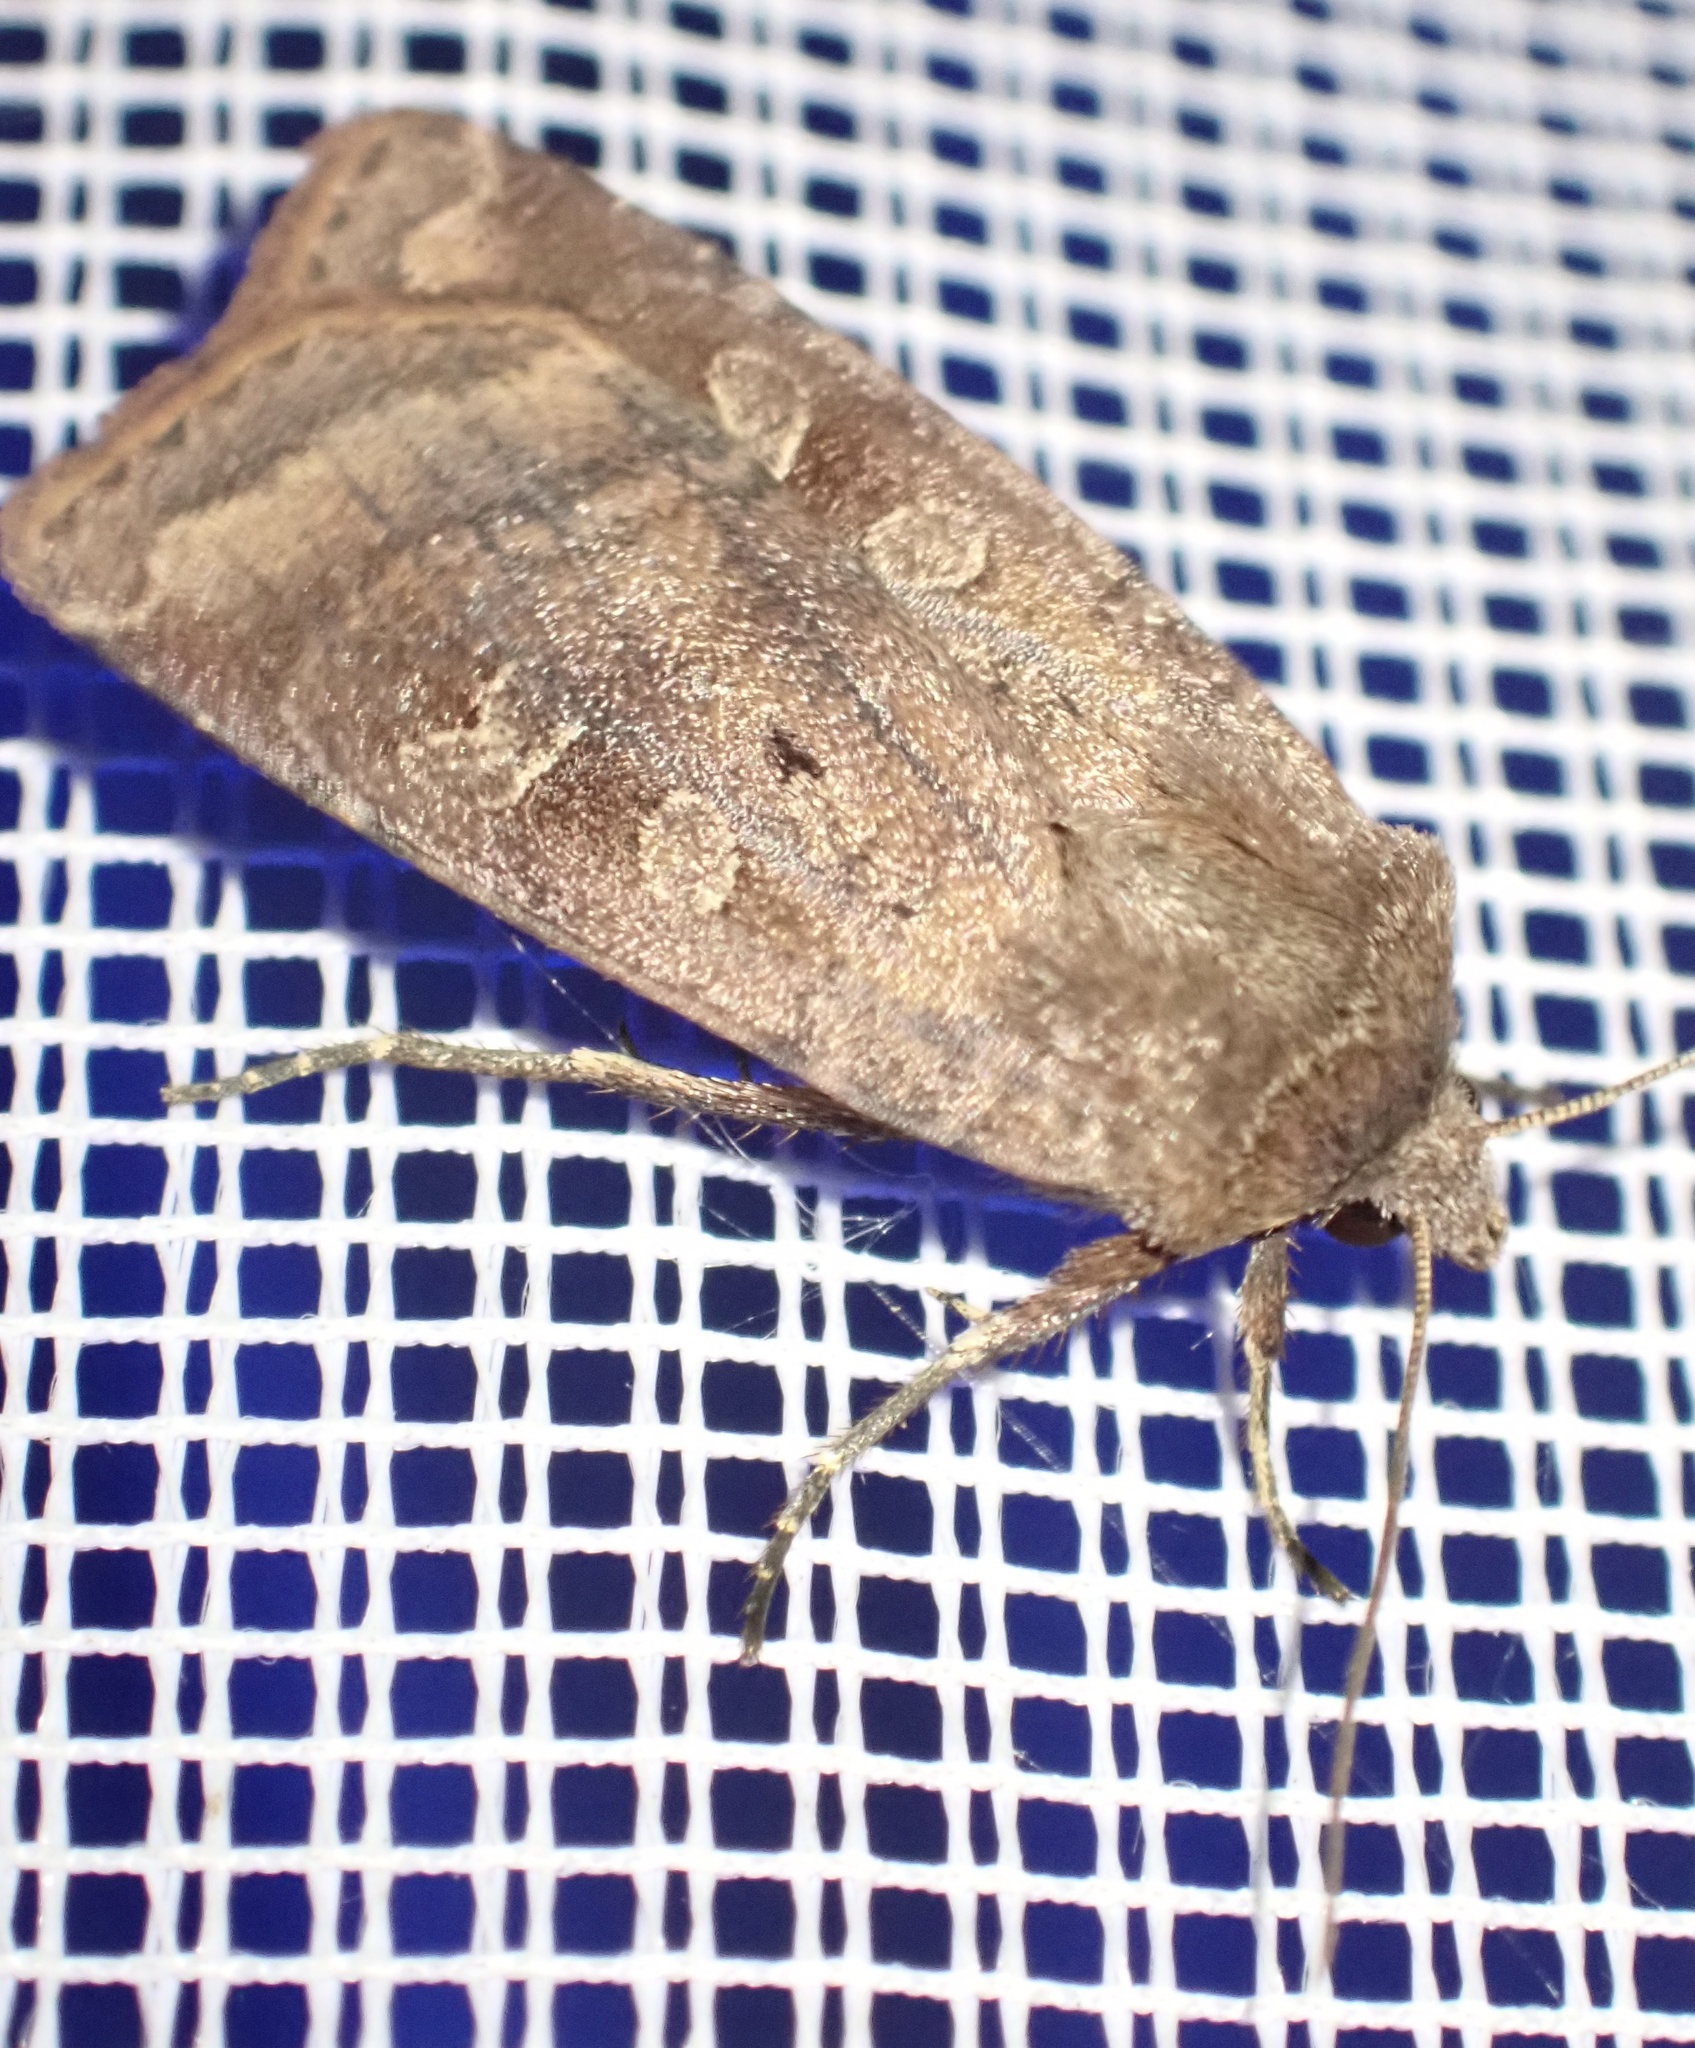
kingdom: Animalia
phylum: Arthropoda
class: Insecta
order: Lepidoptera
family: Noctuidae
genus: Diarsia
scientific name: Diarsia rubi
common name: Small square-spot
